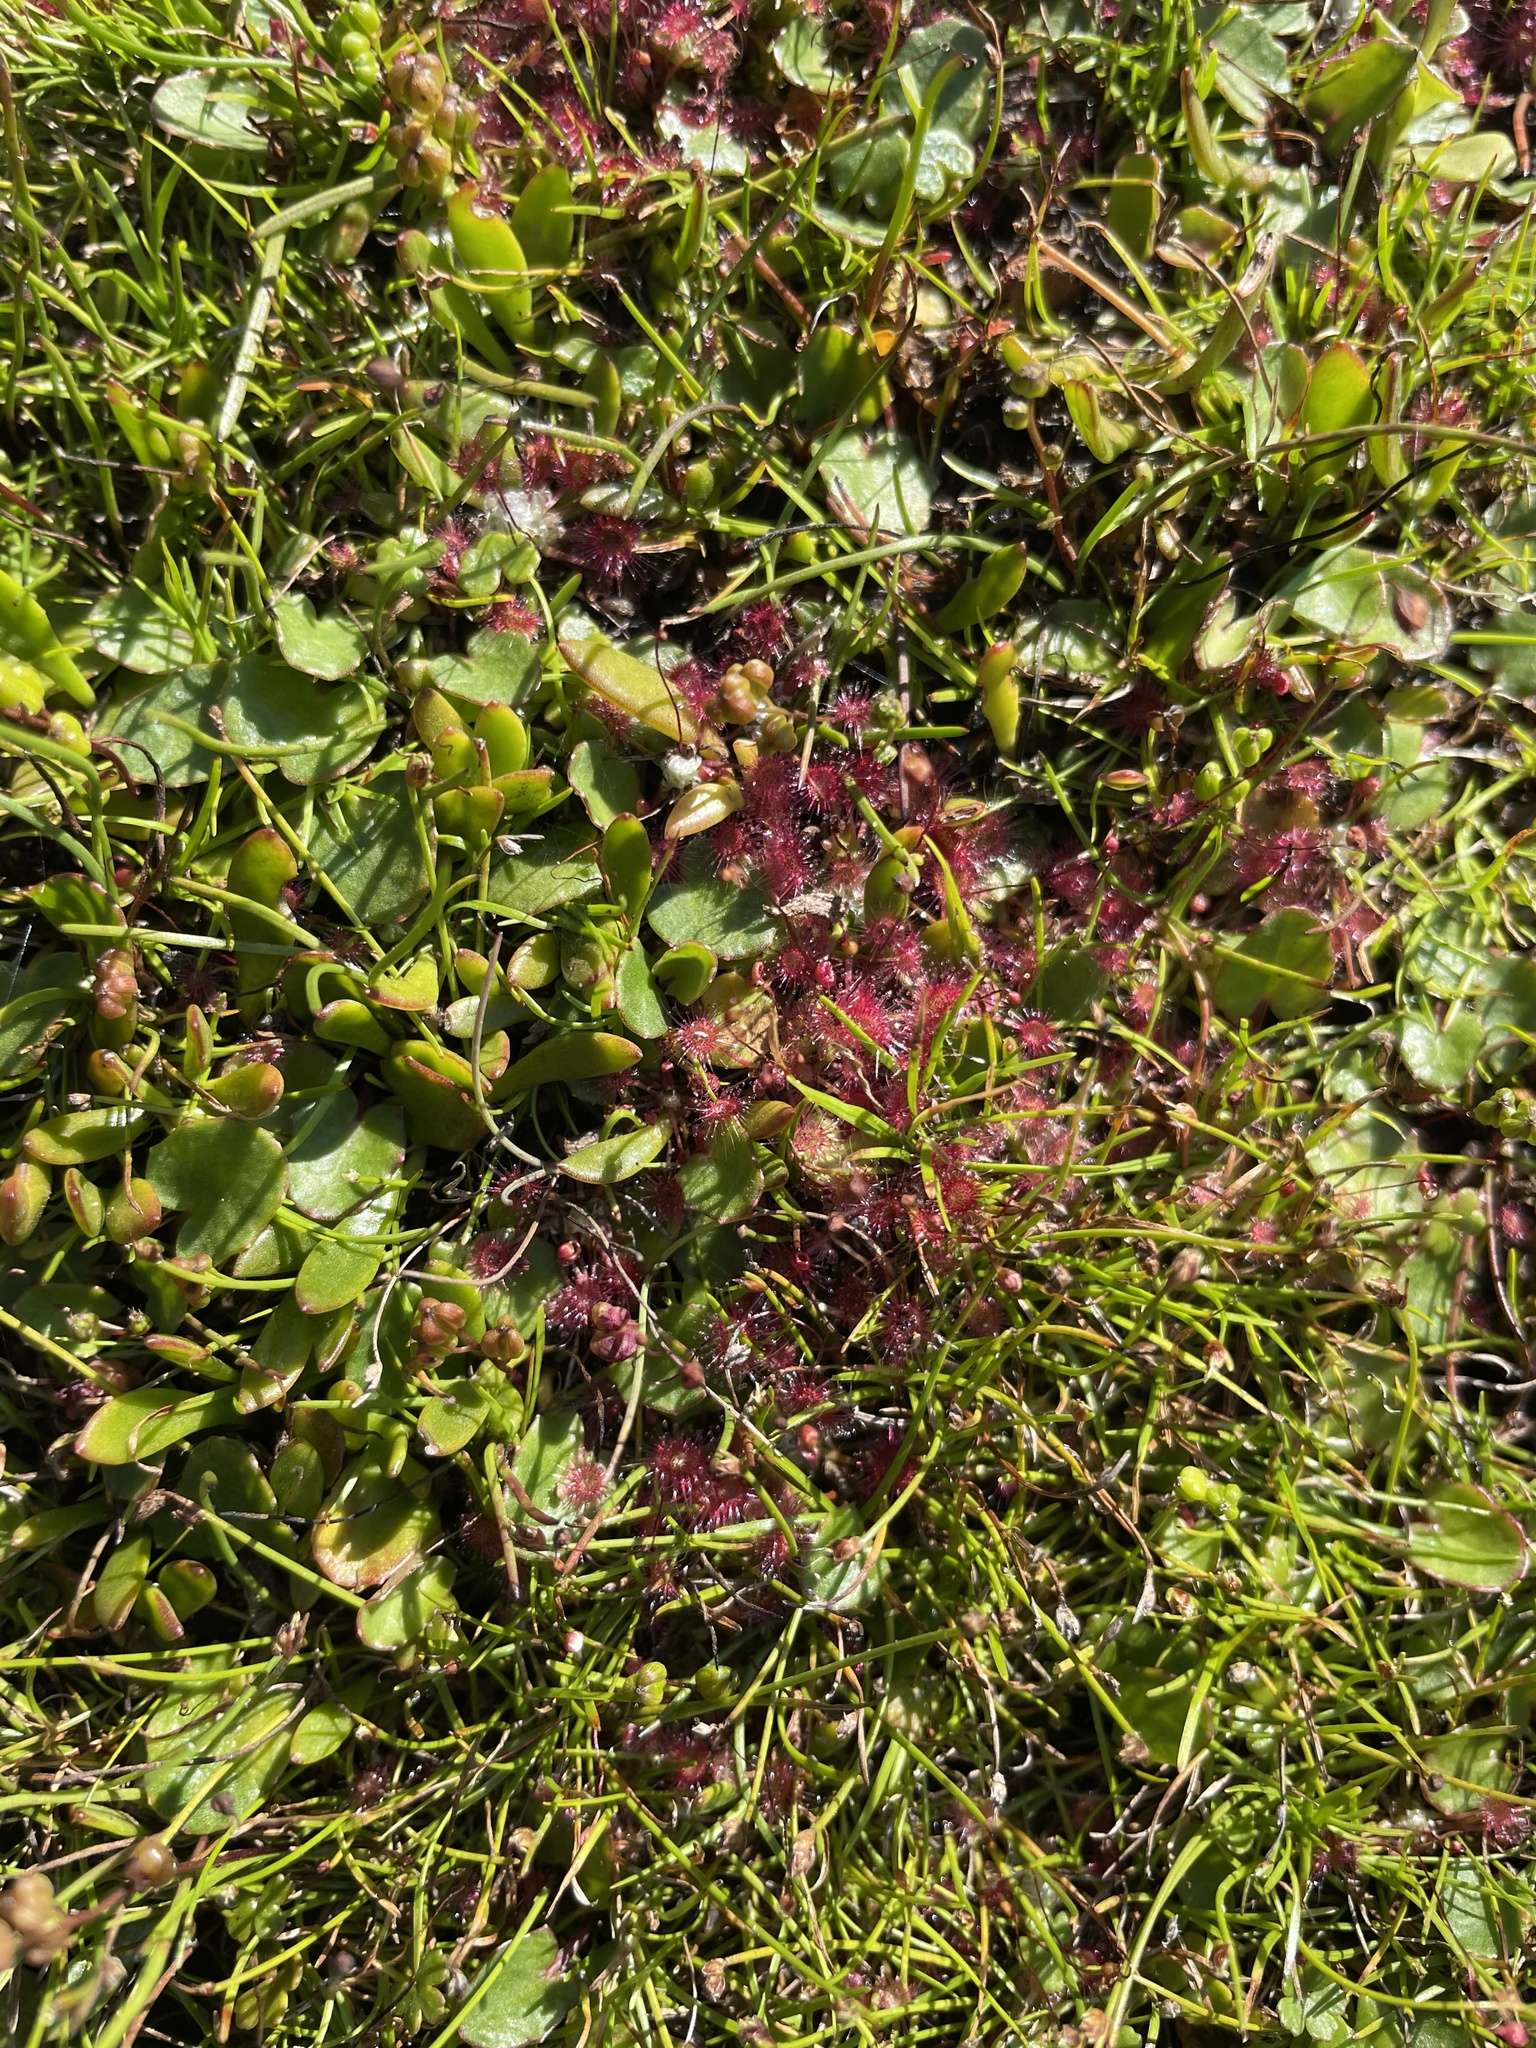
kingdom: Plantae
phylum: Tracheophyta
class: Magnoliopsida
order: Caryophyllales
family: Droseraceae
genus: Drosera
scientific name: Drosera pygmaea
